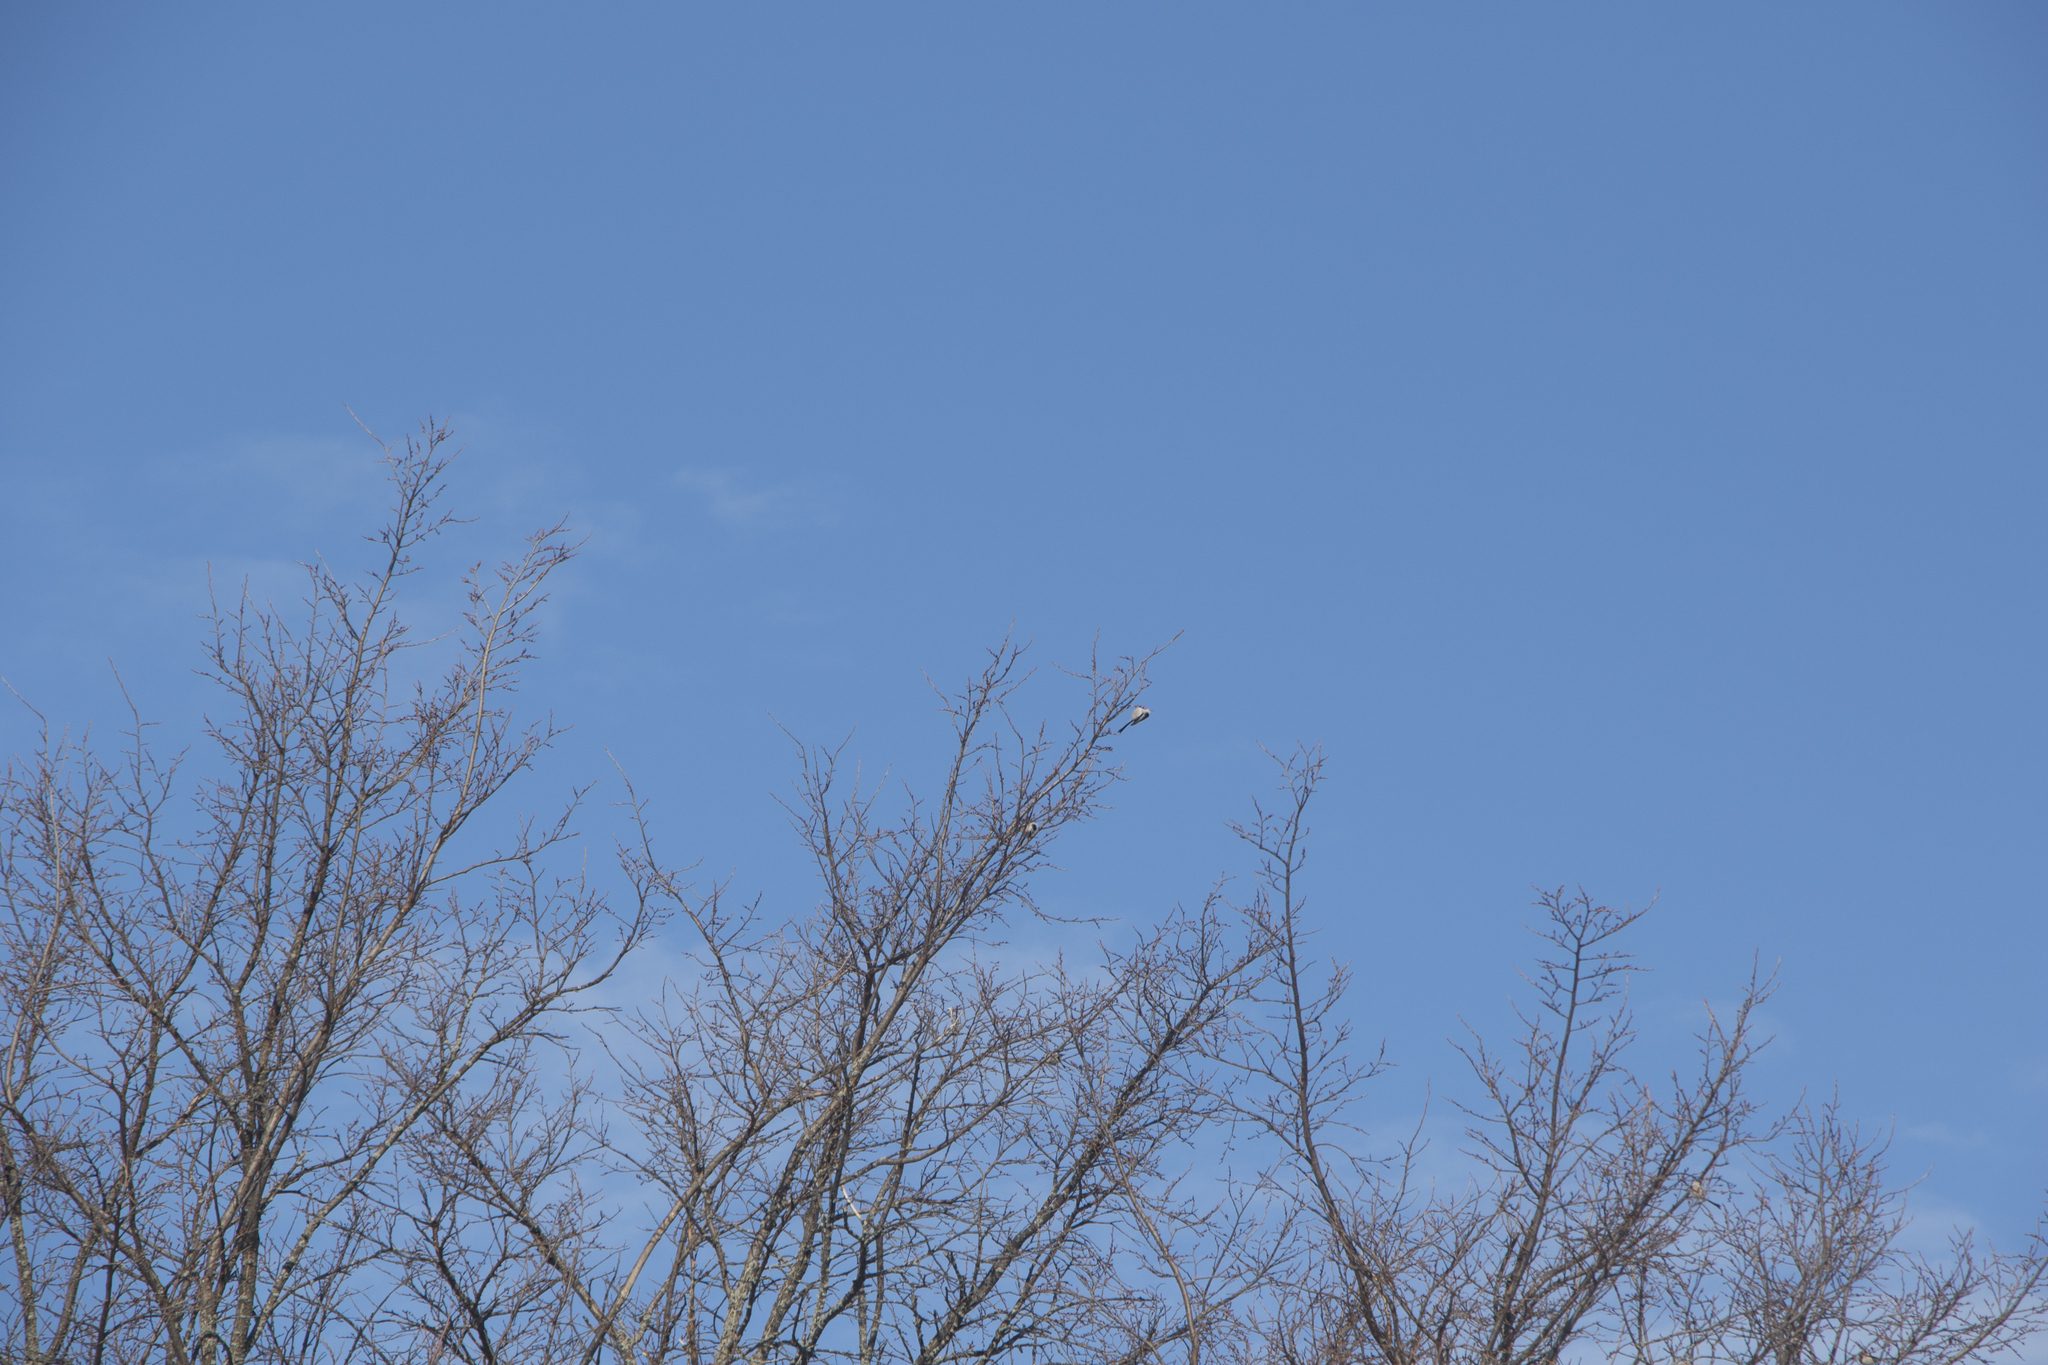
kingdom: Animalia
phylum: Chordata
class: Aves
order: Passeriformes
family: Aegithalidae
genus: Aegithalos
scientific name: Aegithalos caudatus
